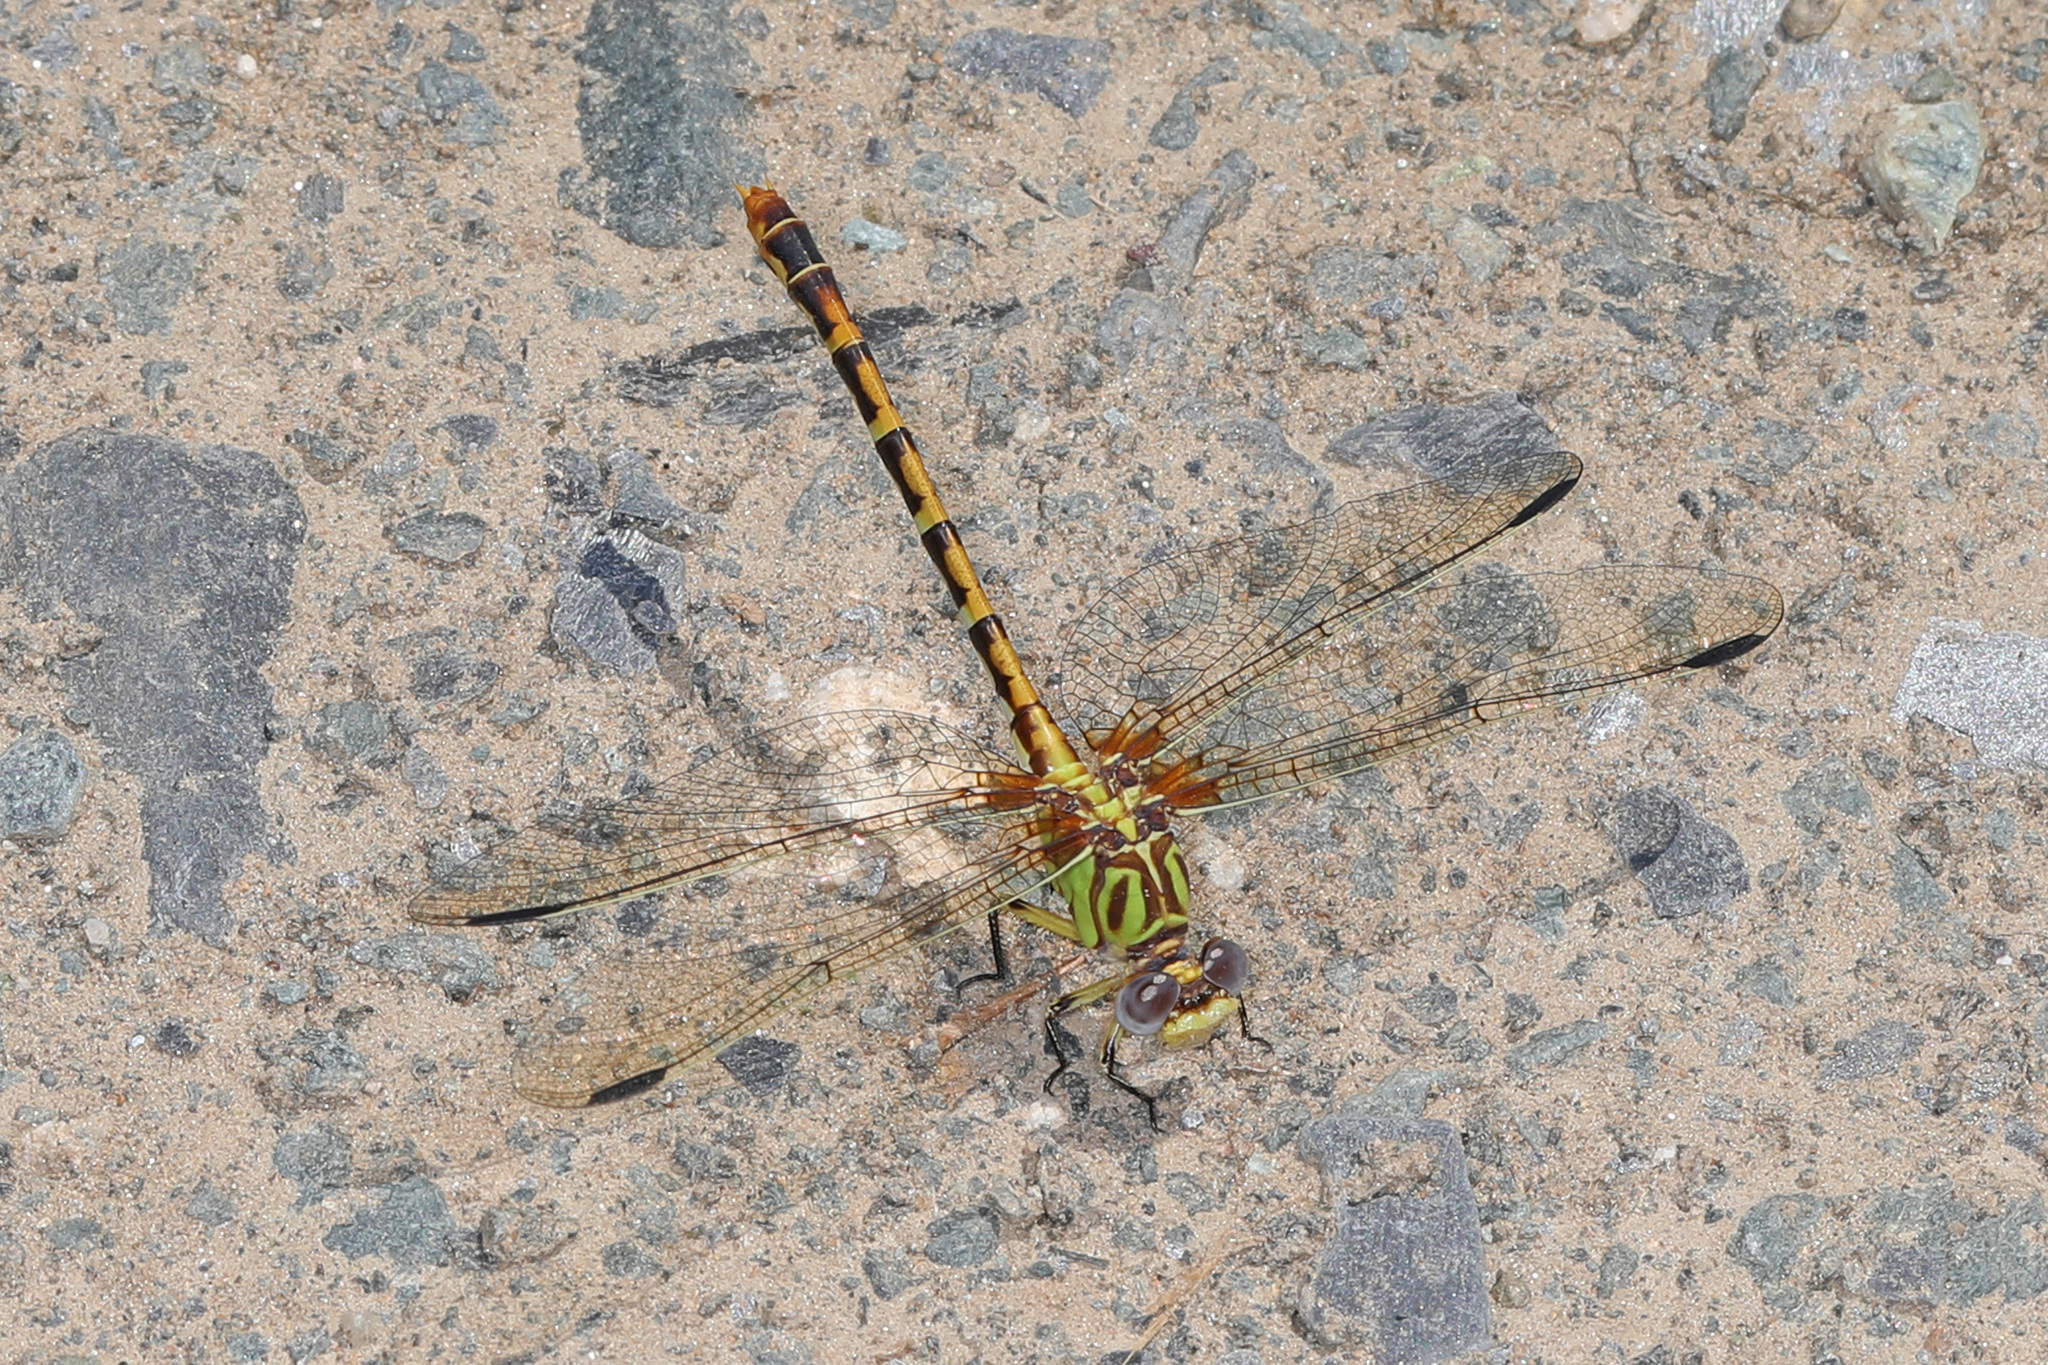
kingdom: Animalia
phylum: Arthropoda
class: Insecta
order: Odonata
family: Gomphidae
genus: Erpetogomphus
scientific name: Erpetogomphus designatus
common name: Eastern ringtail
